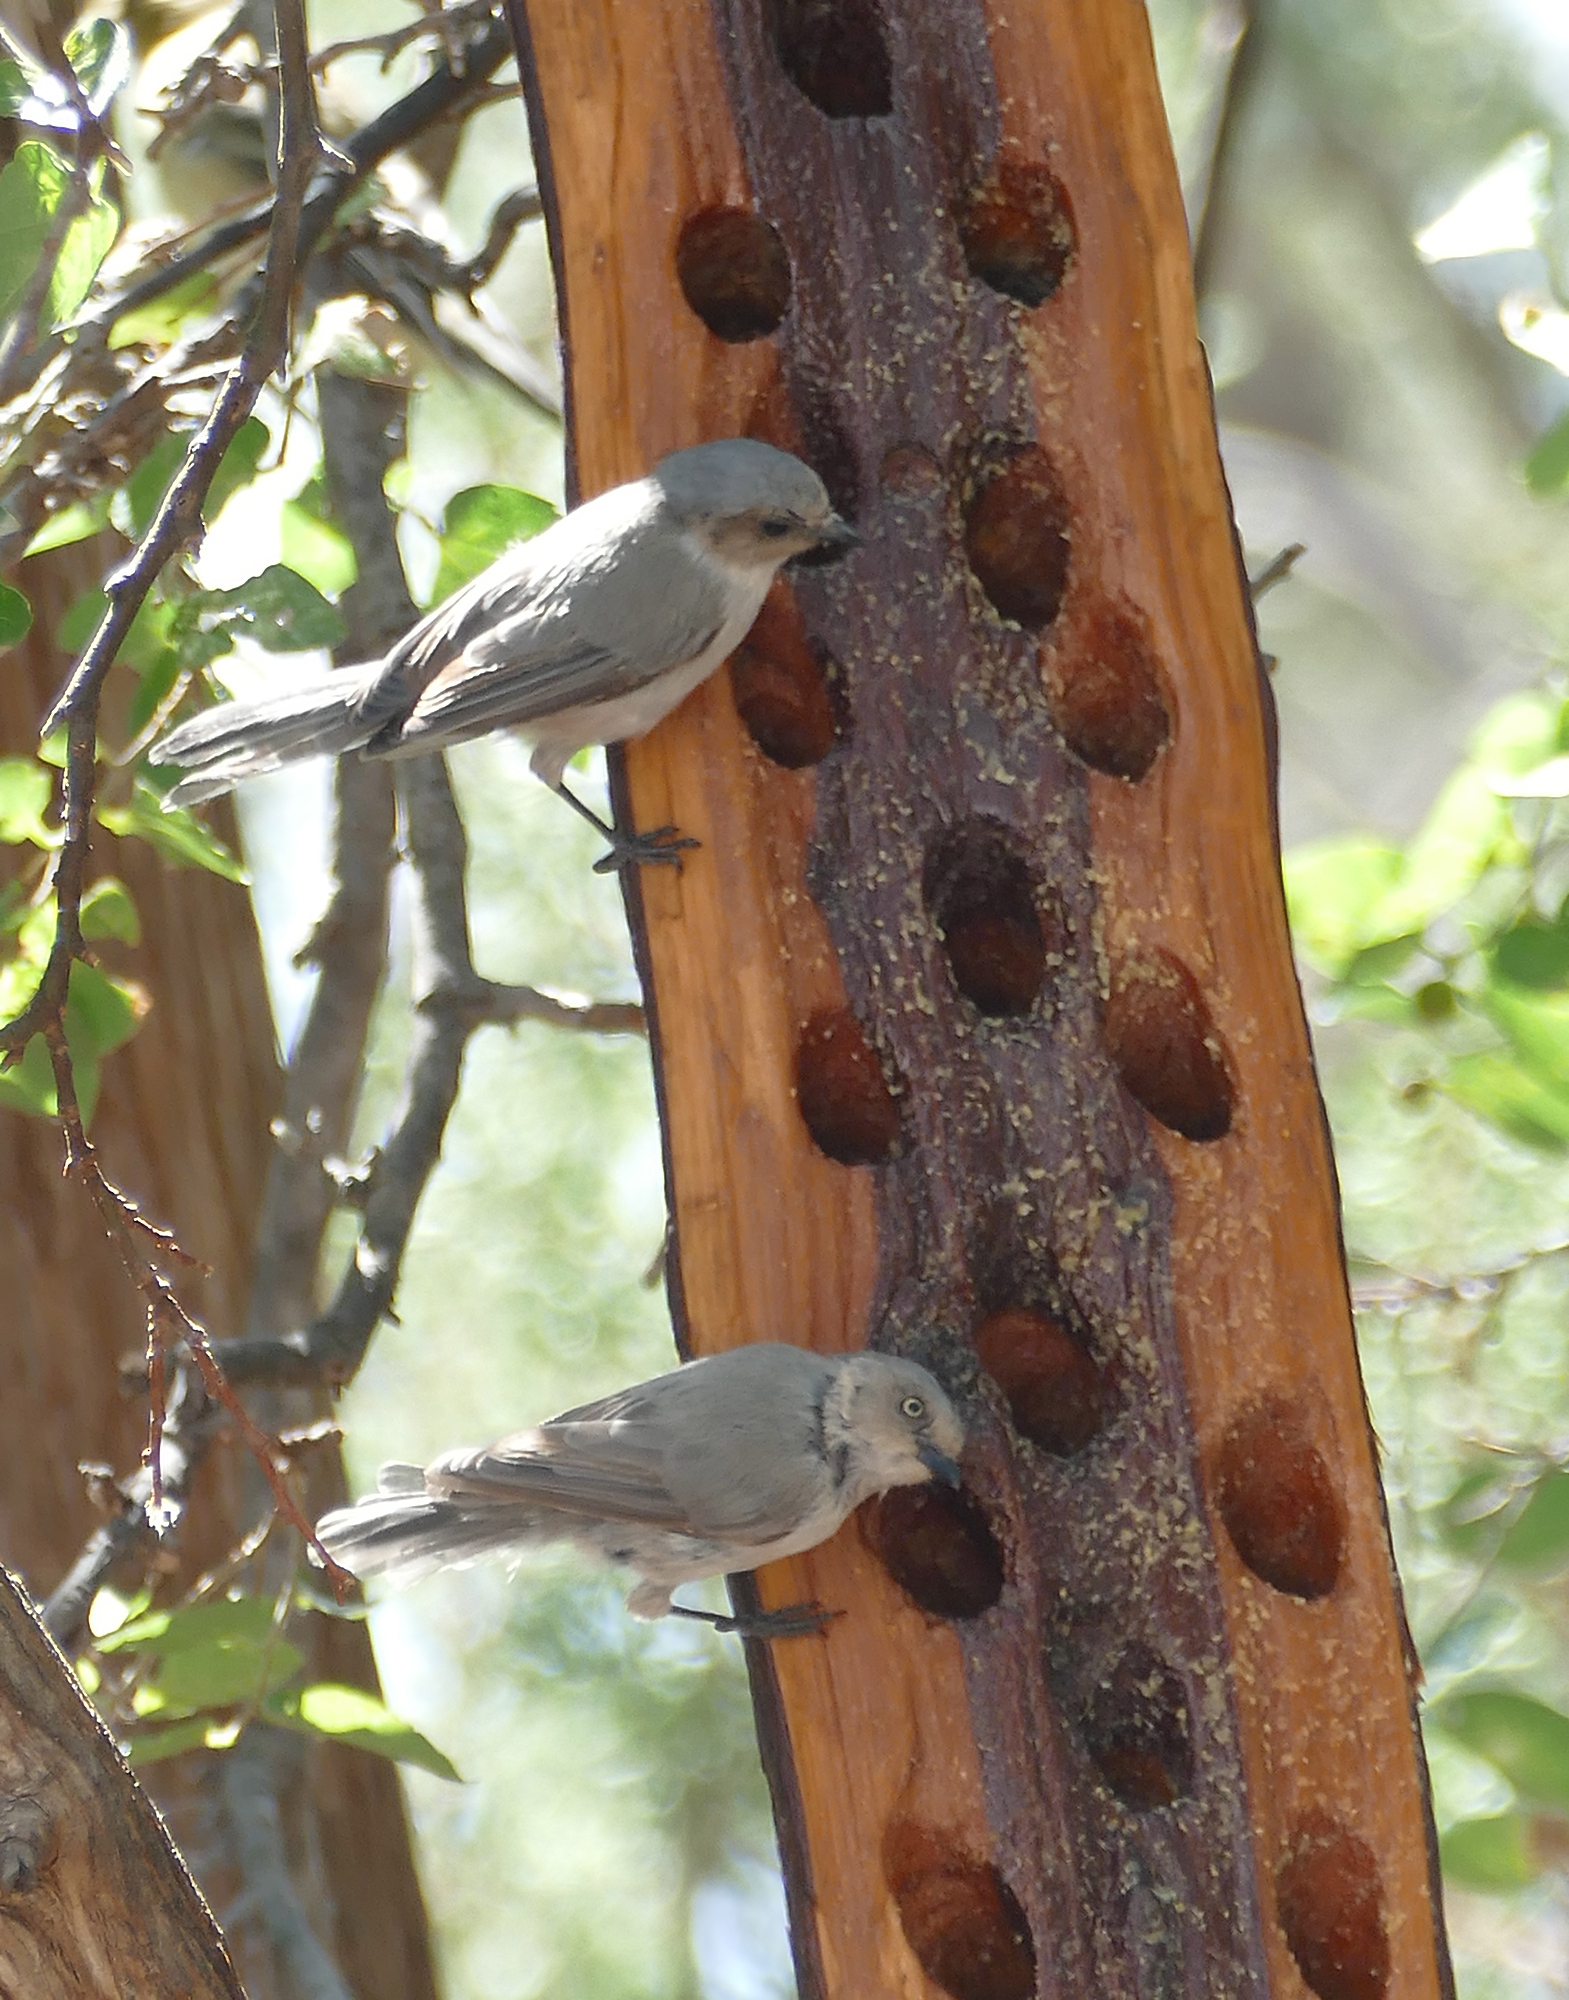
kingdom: Animalia
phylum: Chordata
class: Aves
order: Passeriformes
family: Aegithalidae
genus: Psaltriparus
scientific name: Psaltriparus minimus
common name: American bushtit
